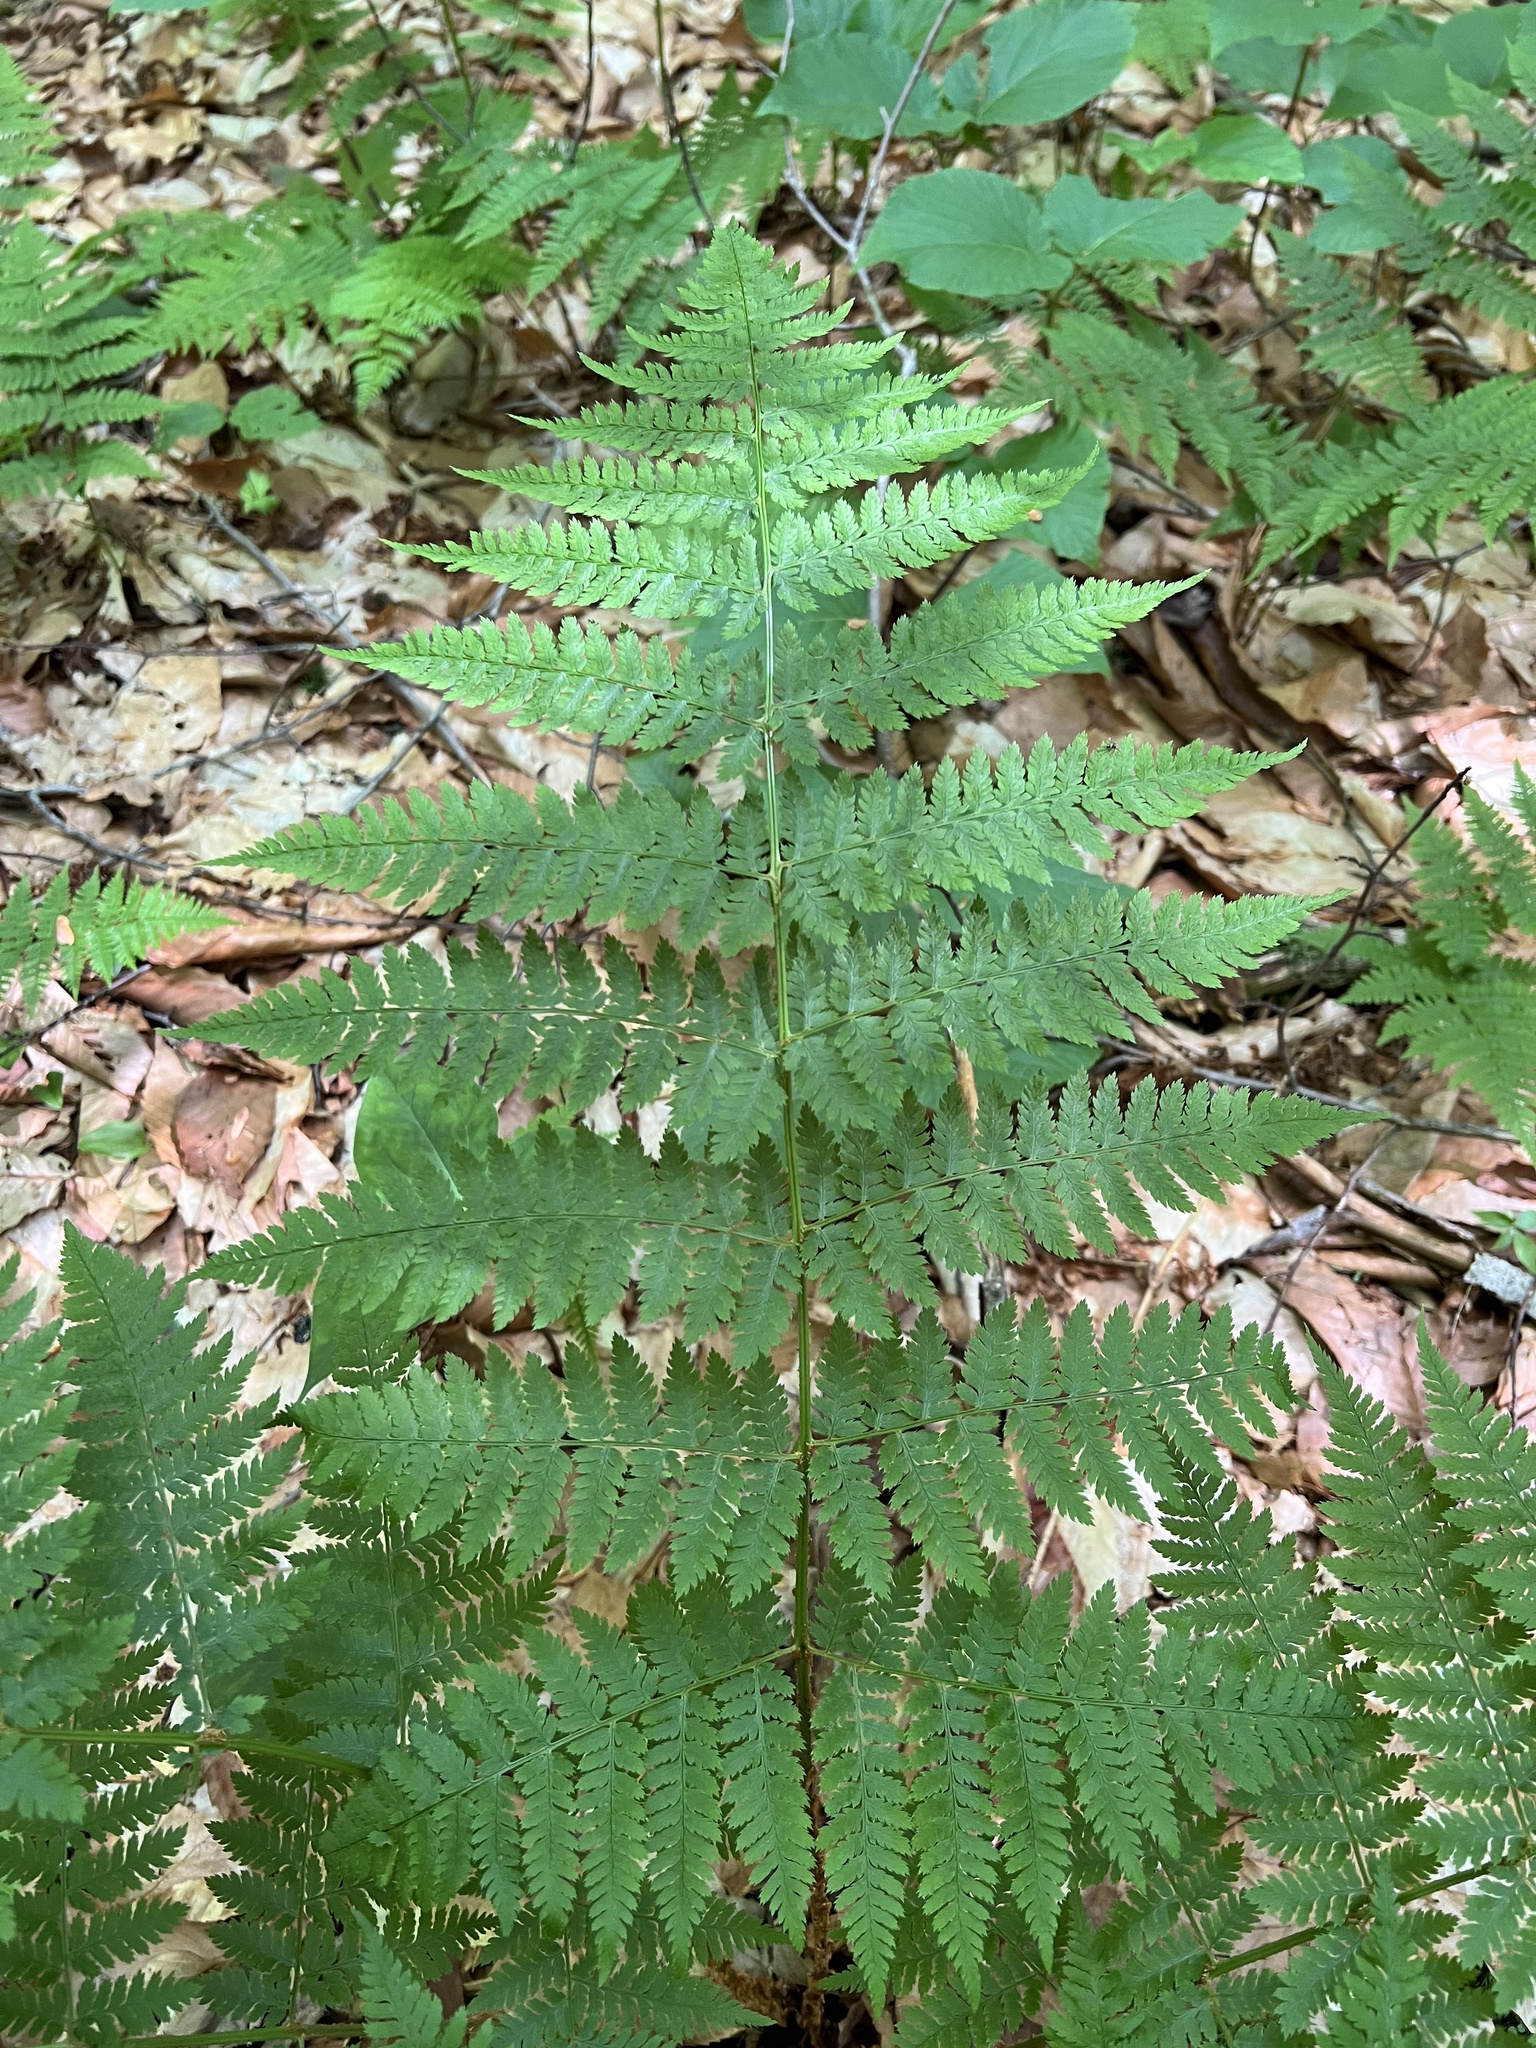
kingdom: Plantae
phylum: Tracheophyta
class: Polypodiopsida
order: Polypodiales
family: Dryopteridaceae
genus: Dryopteris
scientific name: Dryopteris campyloptera
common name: Mountain wood fern
